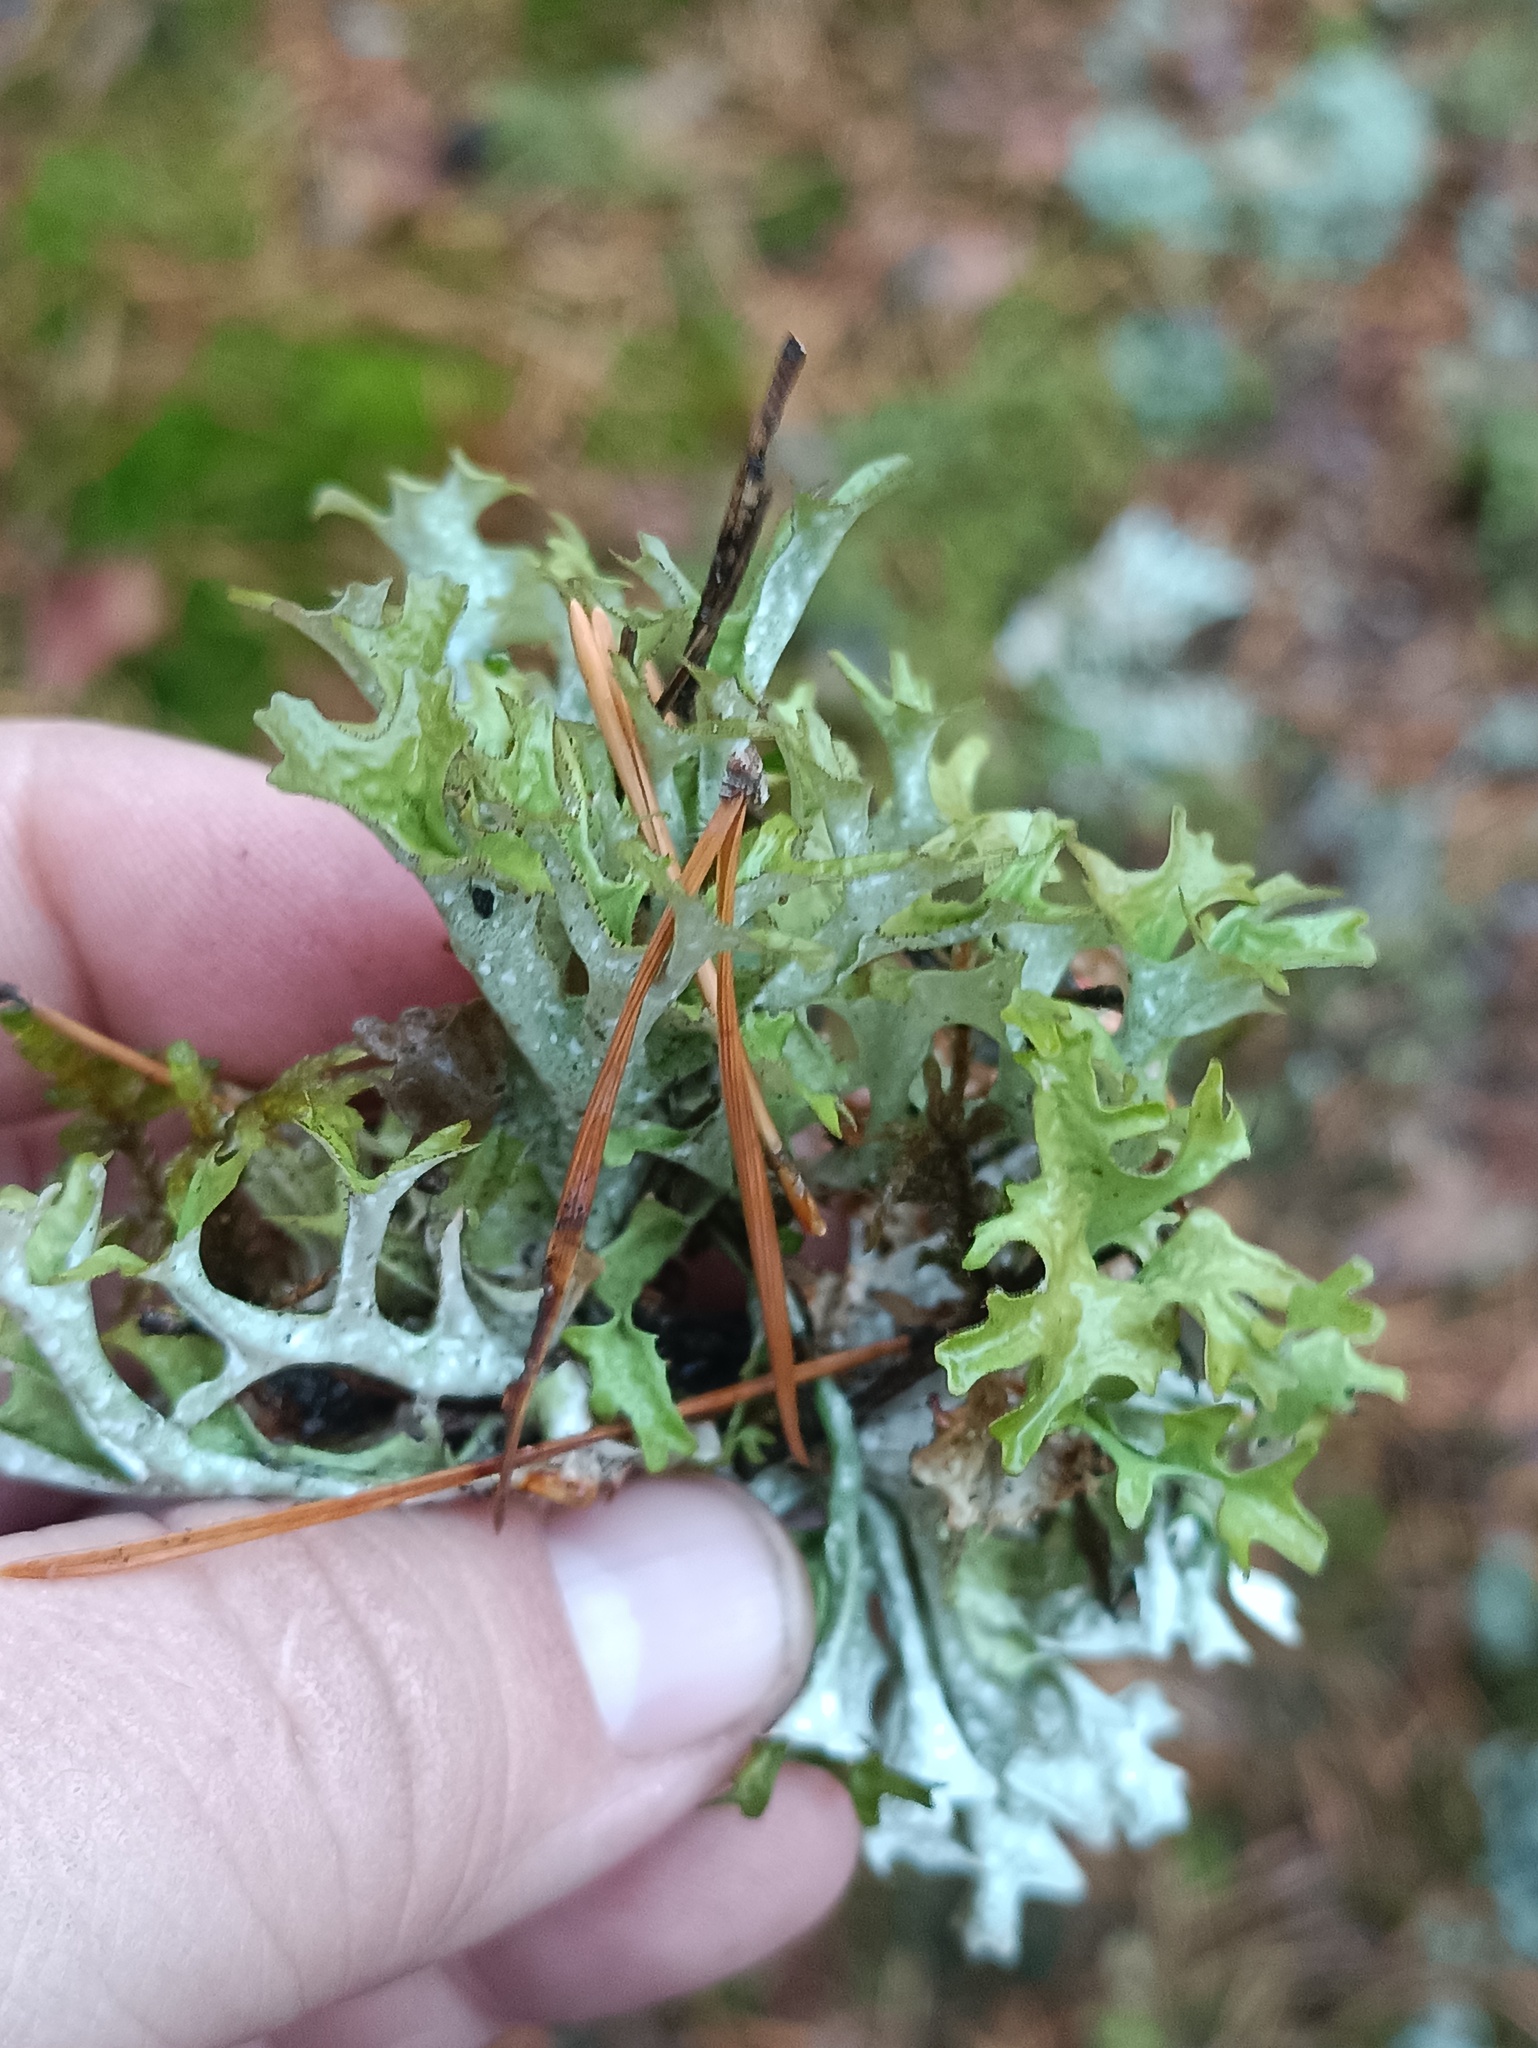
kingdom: Fungi
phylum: Ascomycota
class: Lecanoromycetes
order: Lecanorales
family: Parmeliaceae
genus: Cetraria
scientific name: Cetraria islandica
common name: Iceland lichen
